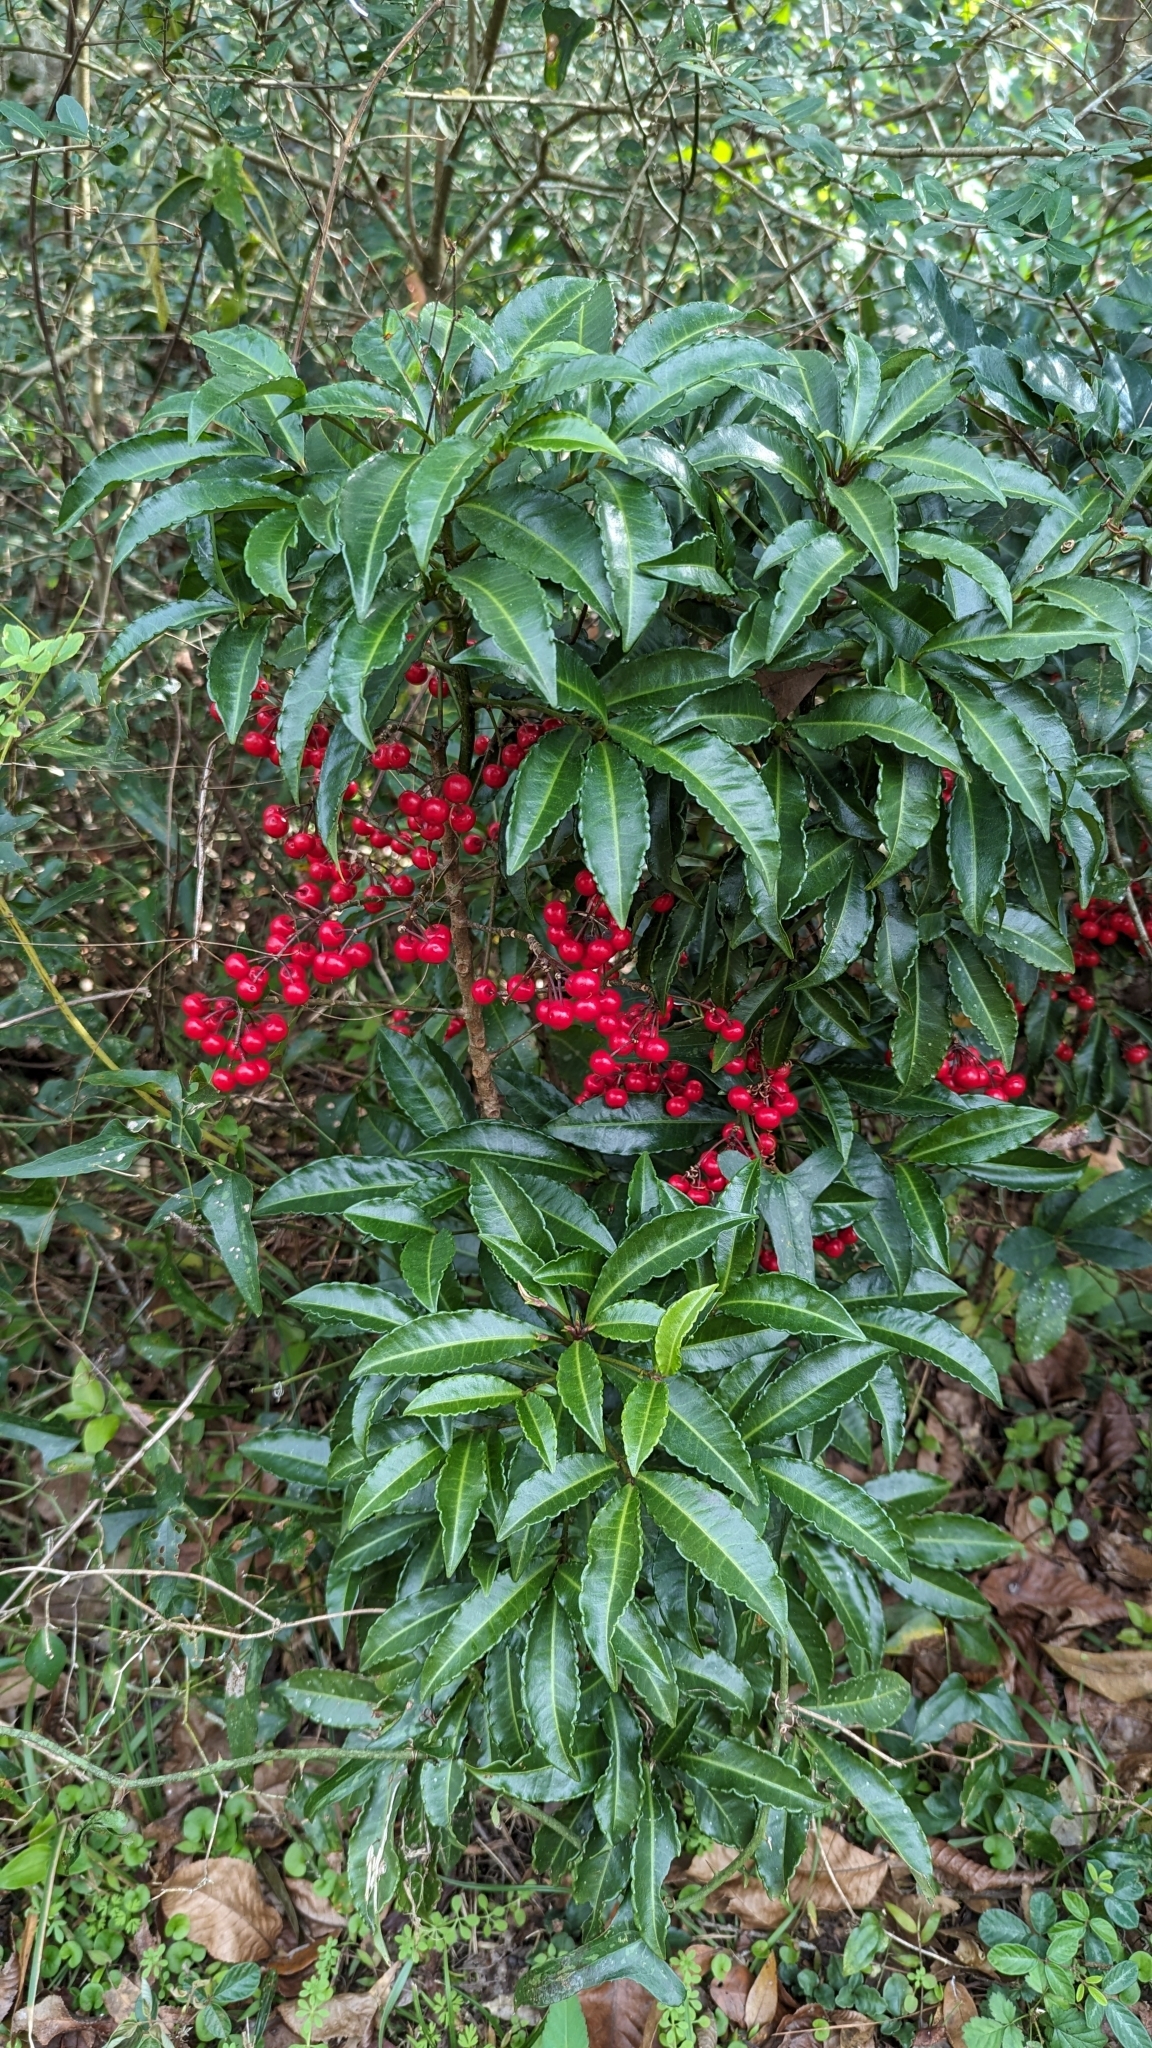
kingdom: Plantae
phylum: Tracheophyta
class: Magnoliopsida
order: Ericales
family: Primulaceae
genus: Ardisia
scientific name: Ardisia crenata
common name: Hen's eyes
